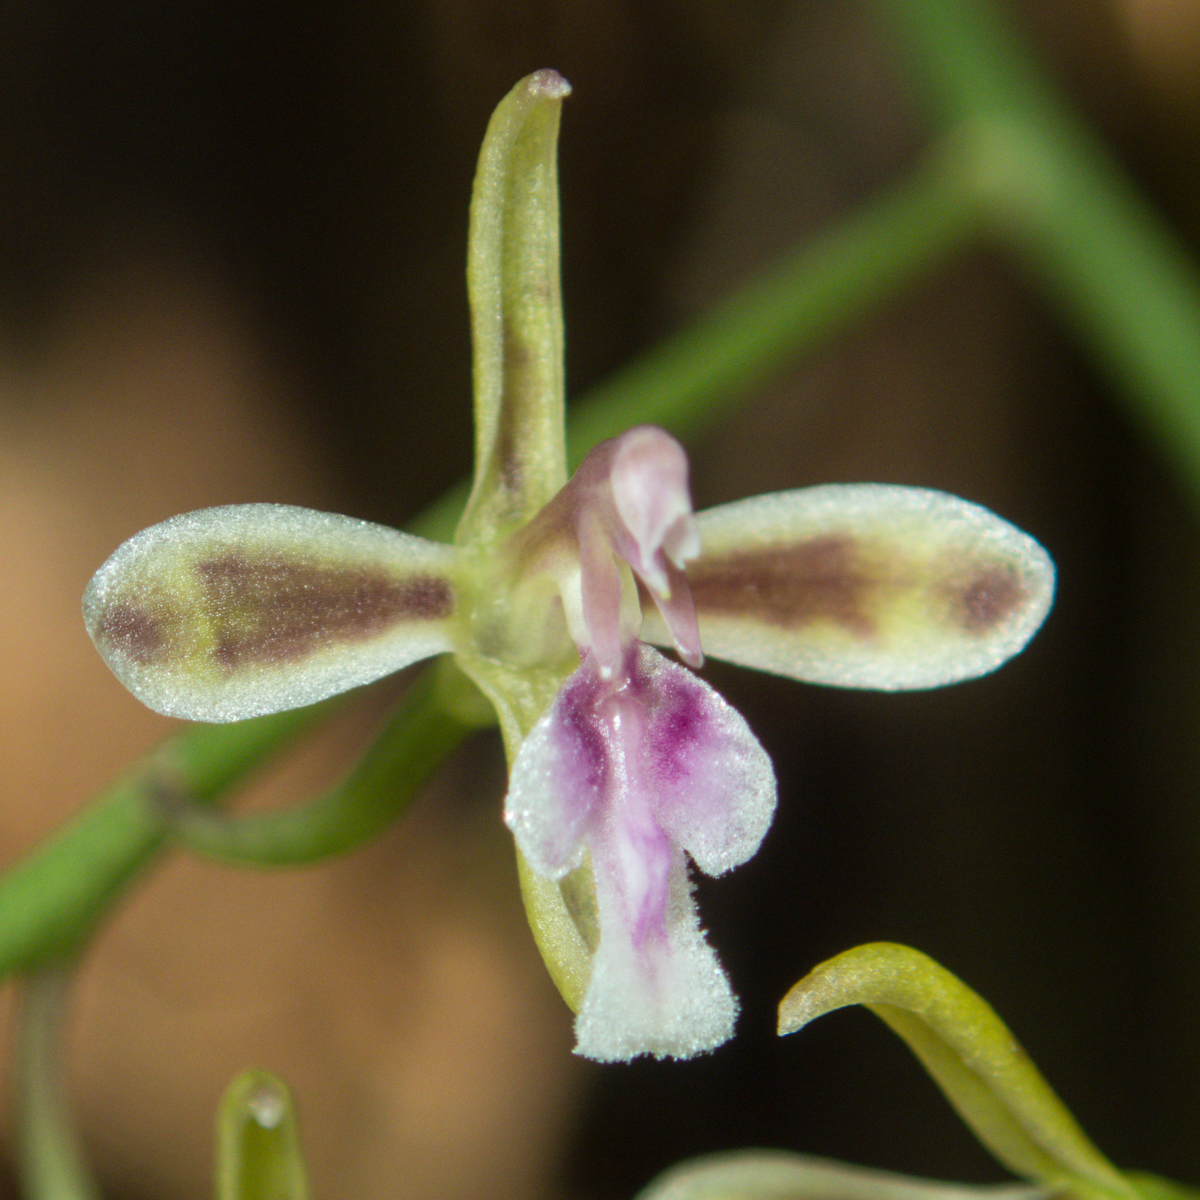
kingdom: Plantae
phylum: Tracheophyta
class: Liliopsida
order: Asparagales
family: Orchidaceae
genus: Acriopsis
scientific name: Acriopsis liliifolia
